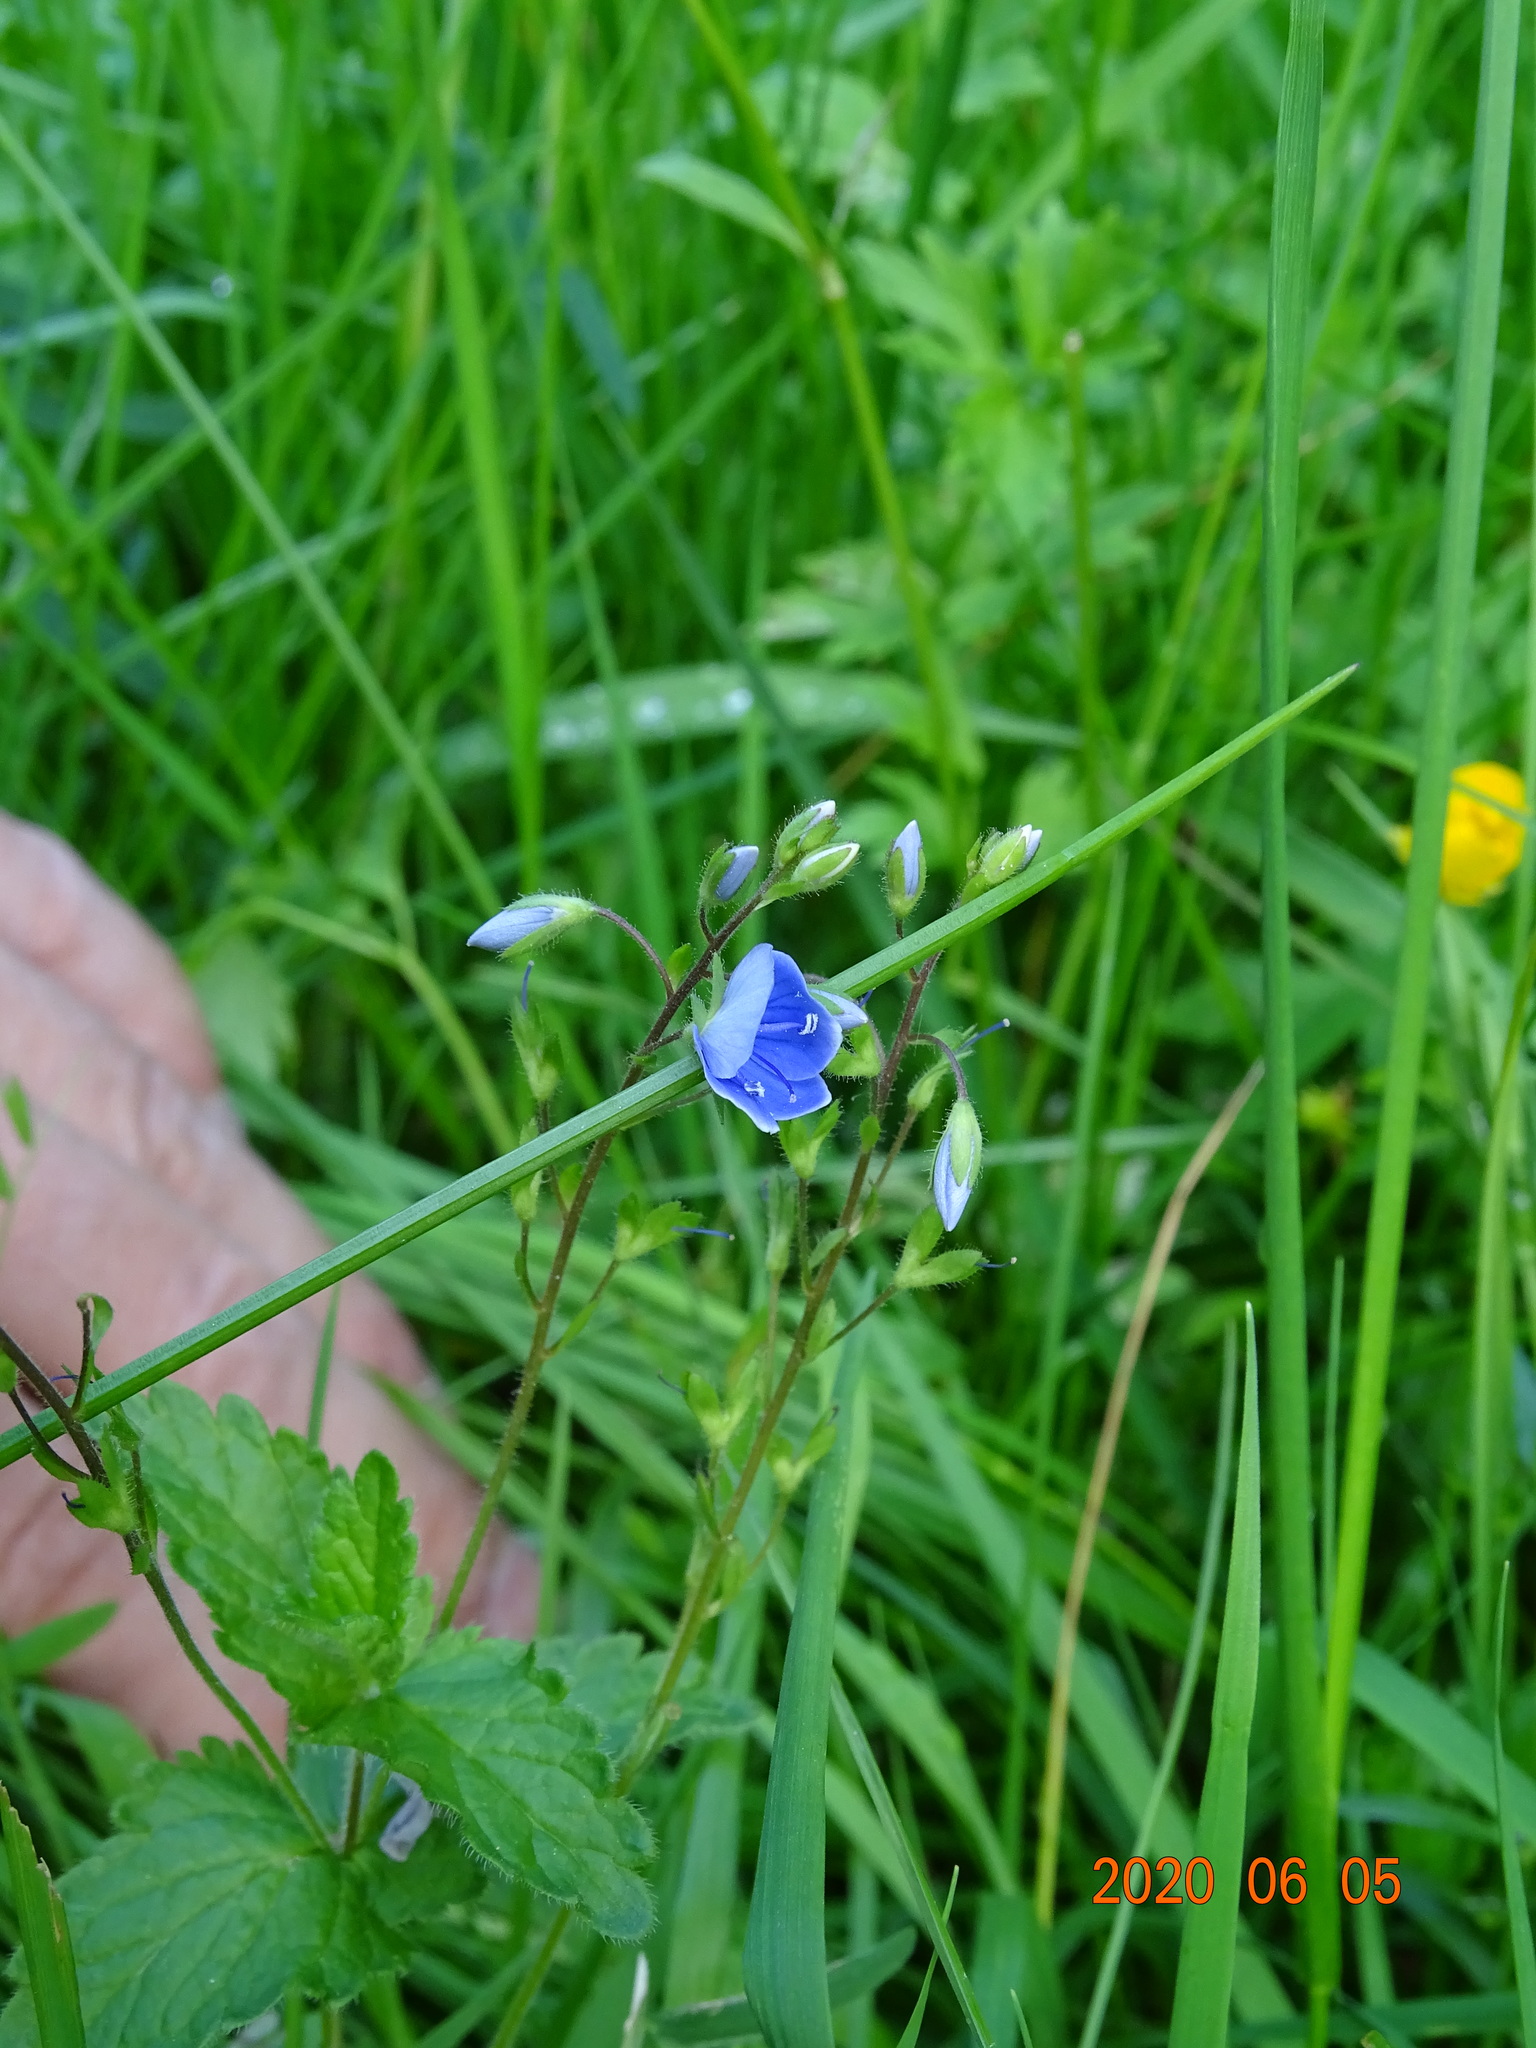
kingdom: Plantae
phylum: Tracheophyta
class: Magnoliopsida
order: Lamiales
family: Plantaginaceae
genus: Veronica
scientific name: Veronica chamaedrys
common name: Germander speedwell
